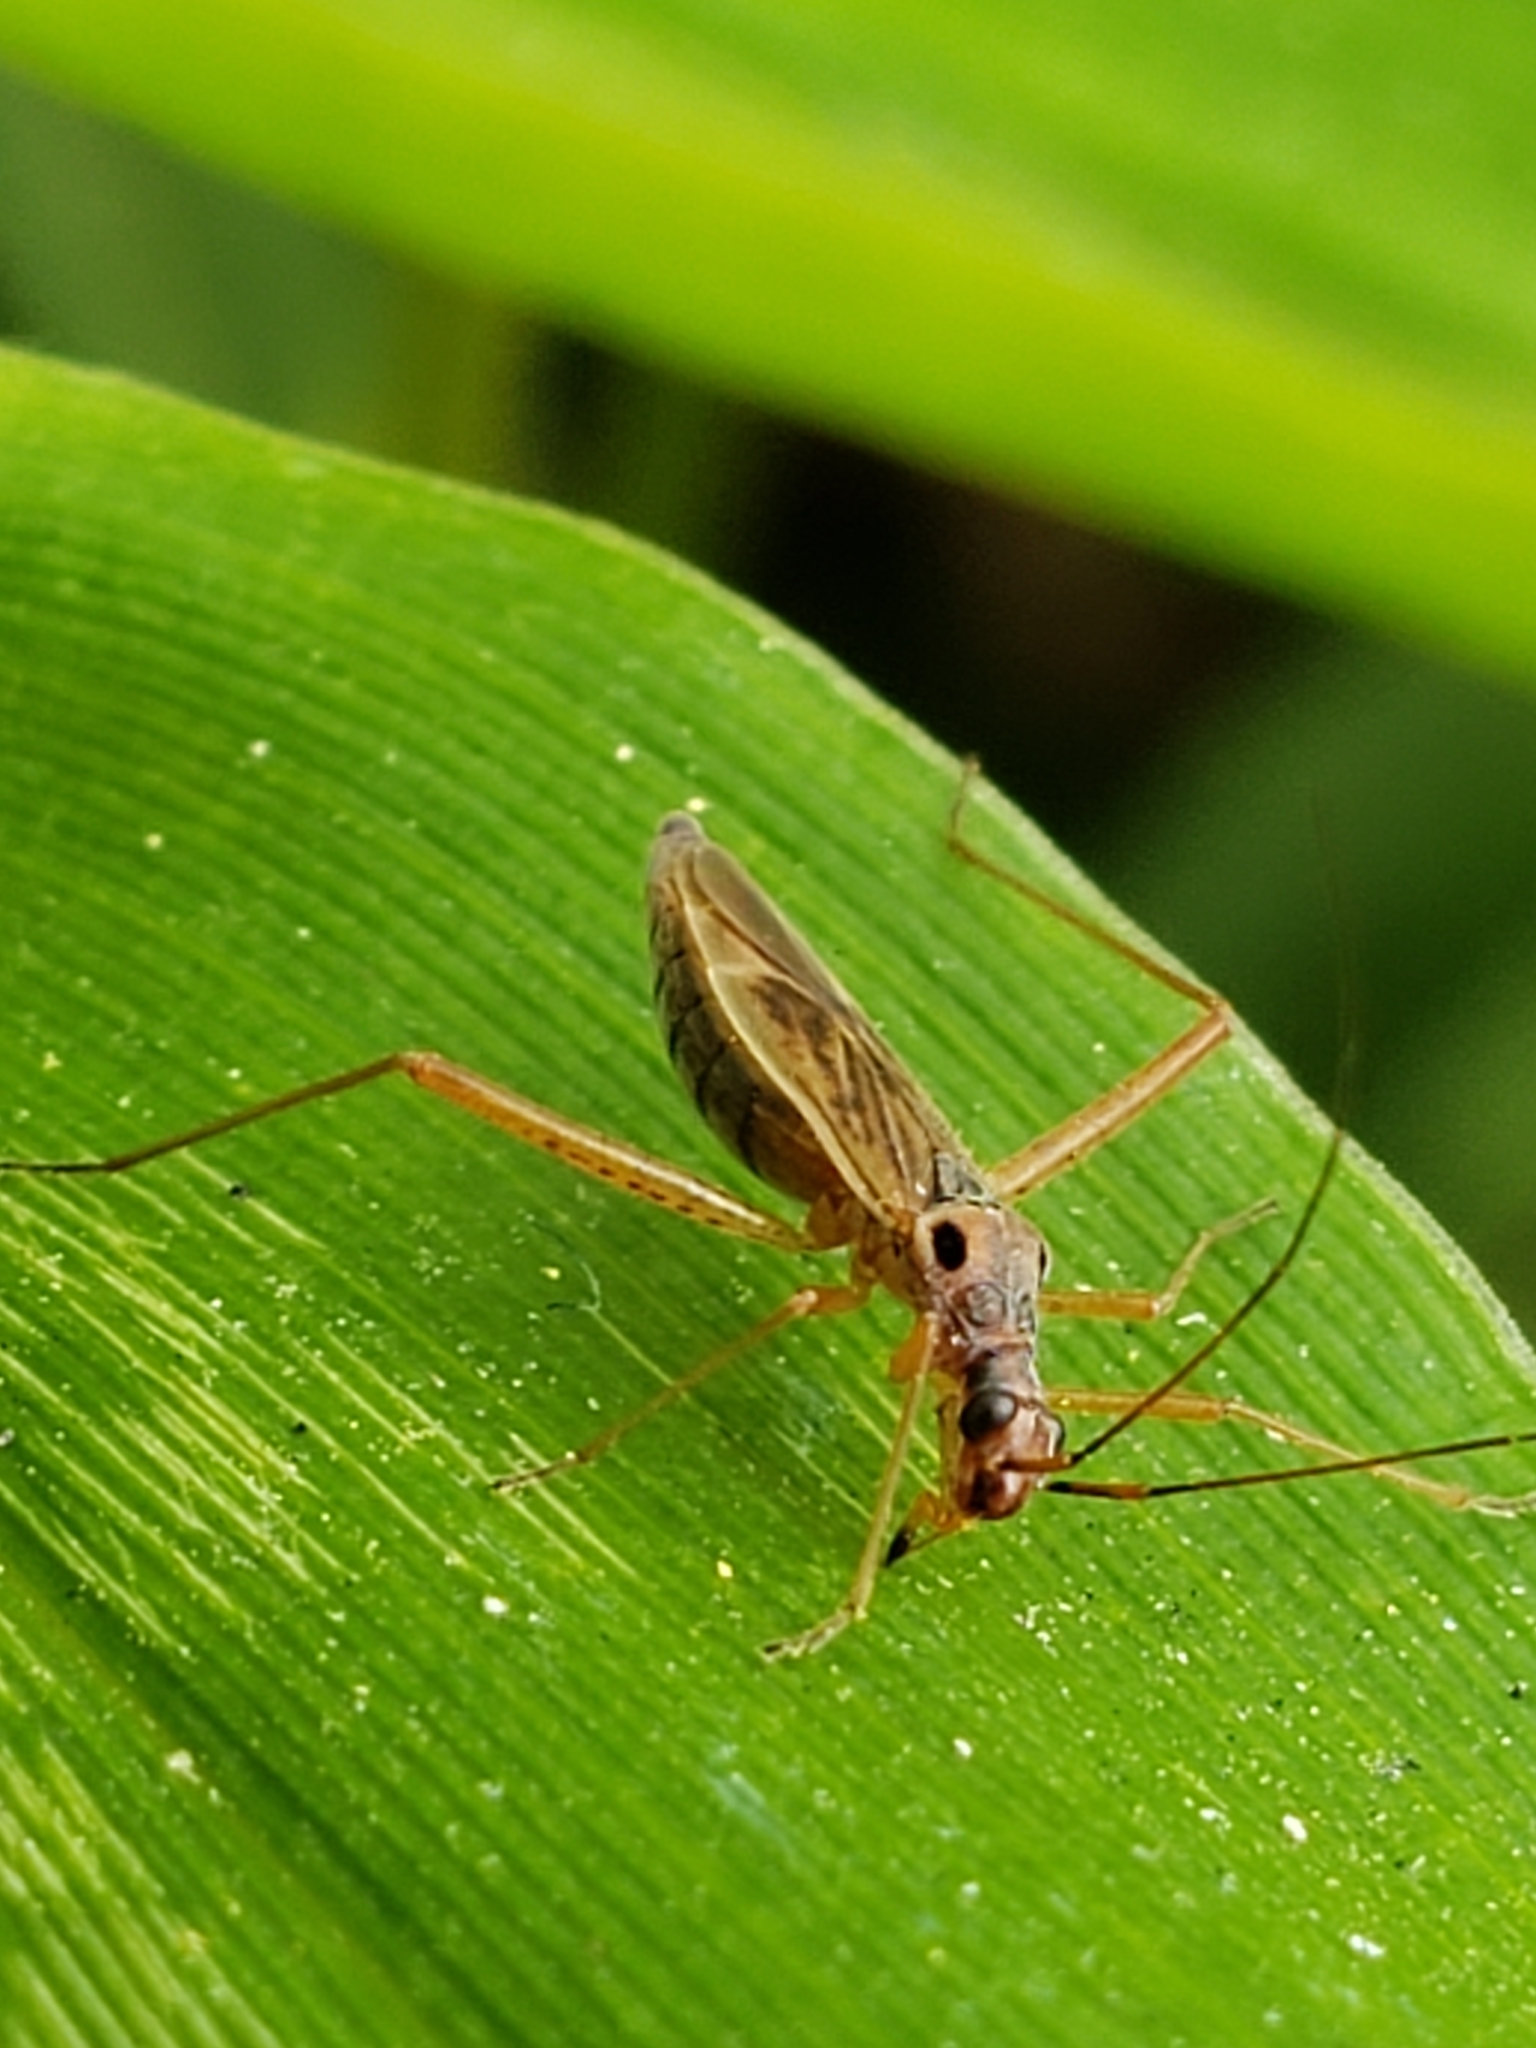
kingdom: Animalia
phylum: Arthropoda
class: Insecta
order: Hemiptera
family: Miridae
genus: Collaria
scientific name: Collaria oculata
